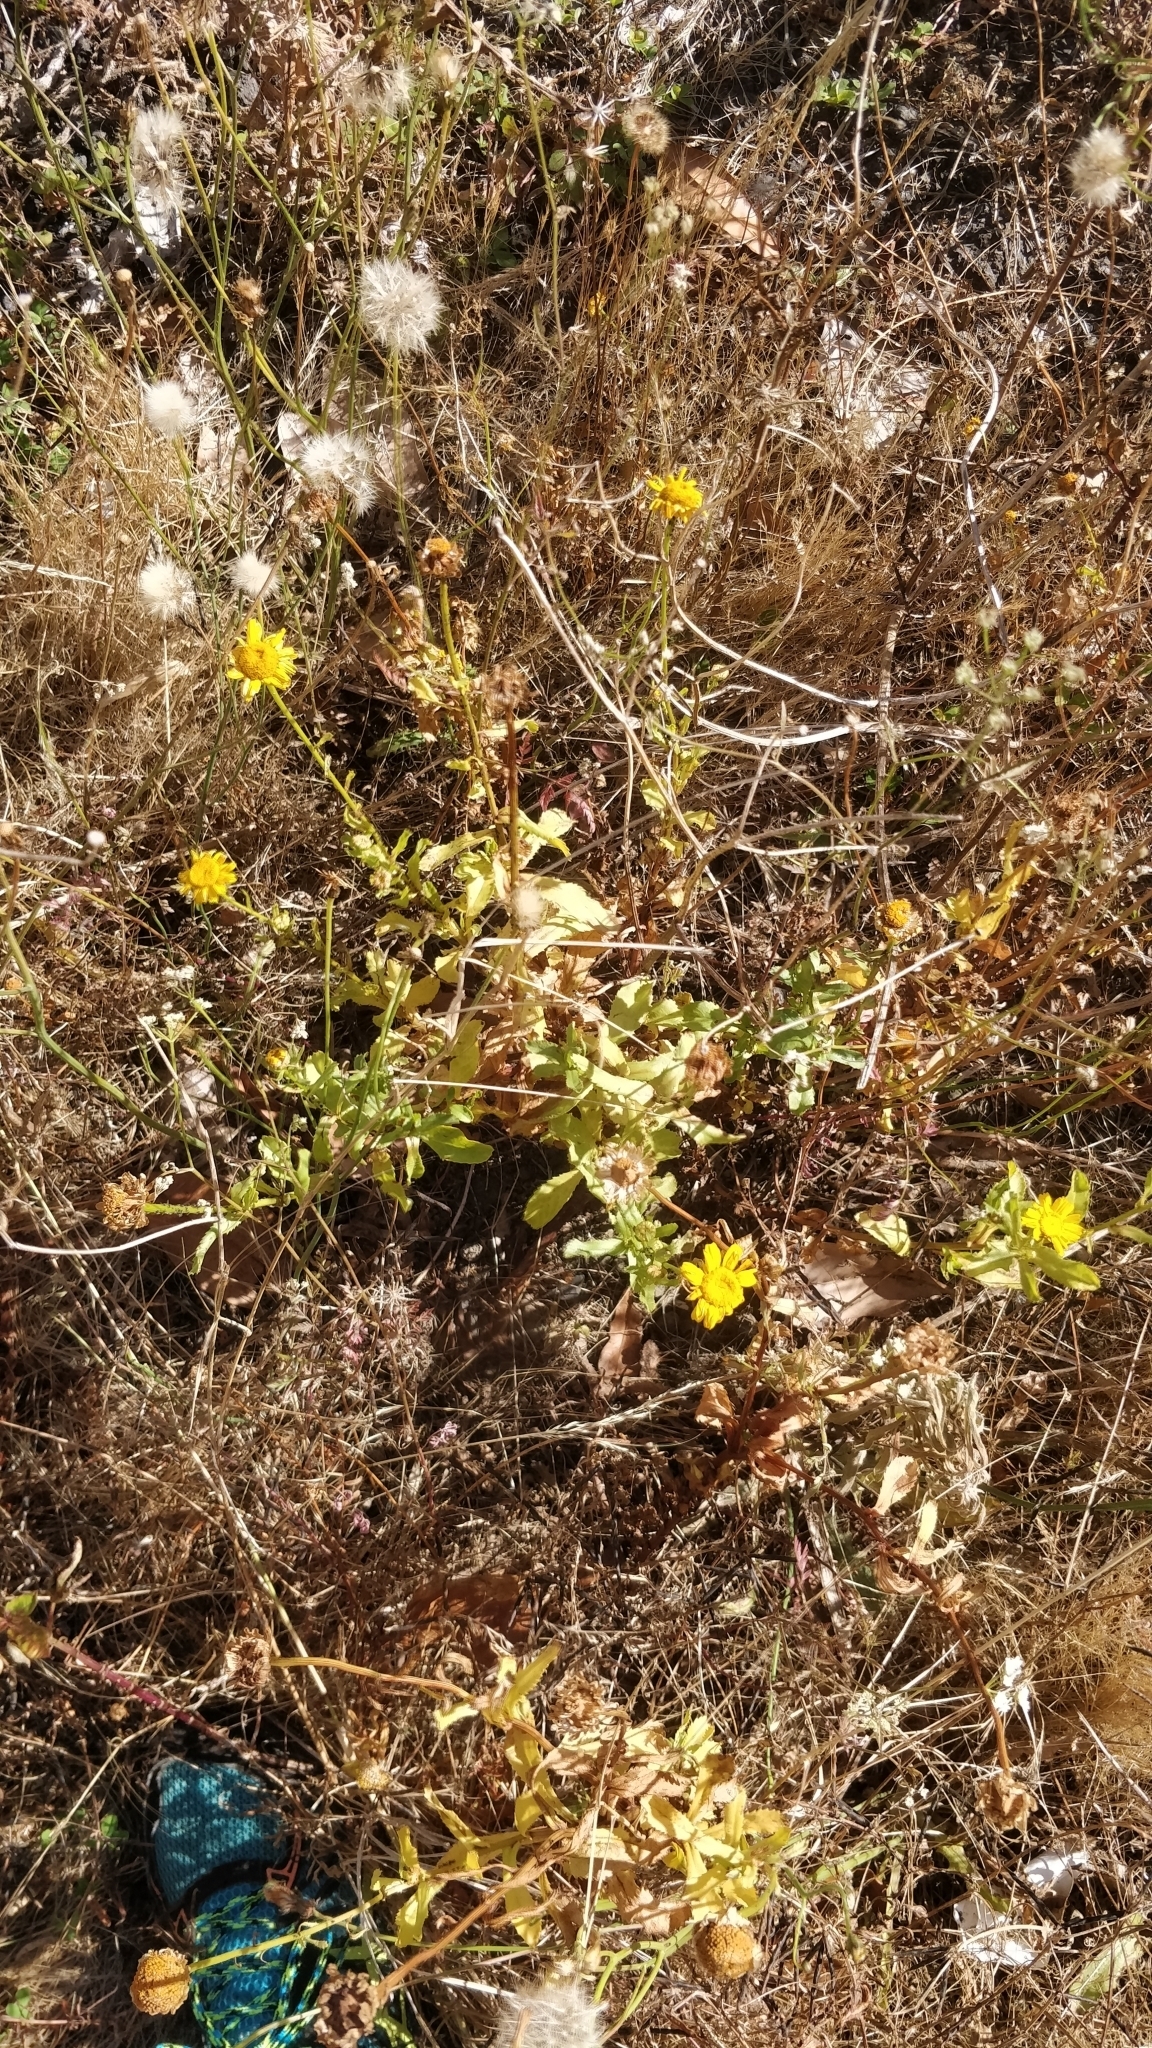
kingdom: Plantae
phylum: Tracheophyta
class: Magnoliopsida
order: Asterales
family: Asteraceae
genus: Coleostephus
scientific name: Coleostephus myconis
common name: Mediterranean marigold
